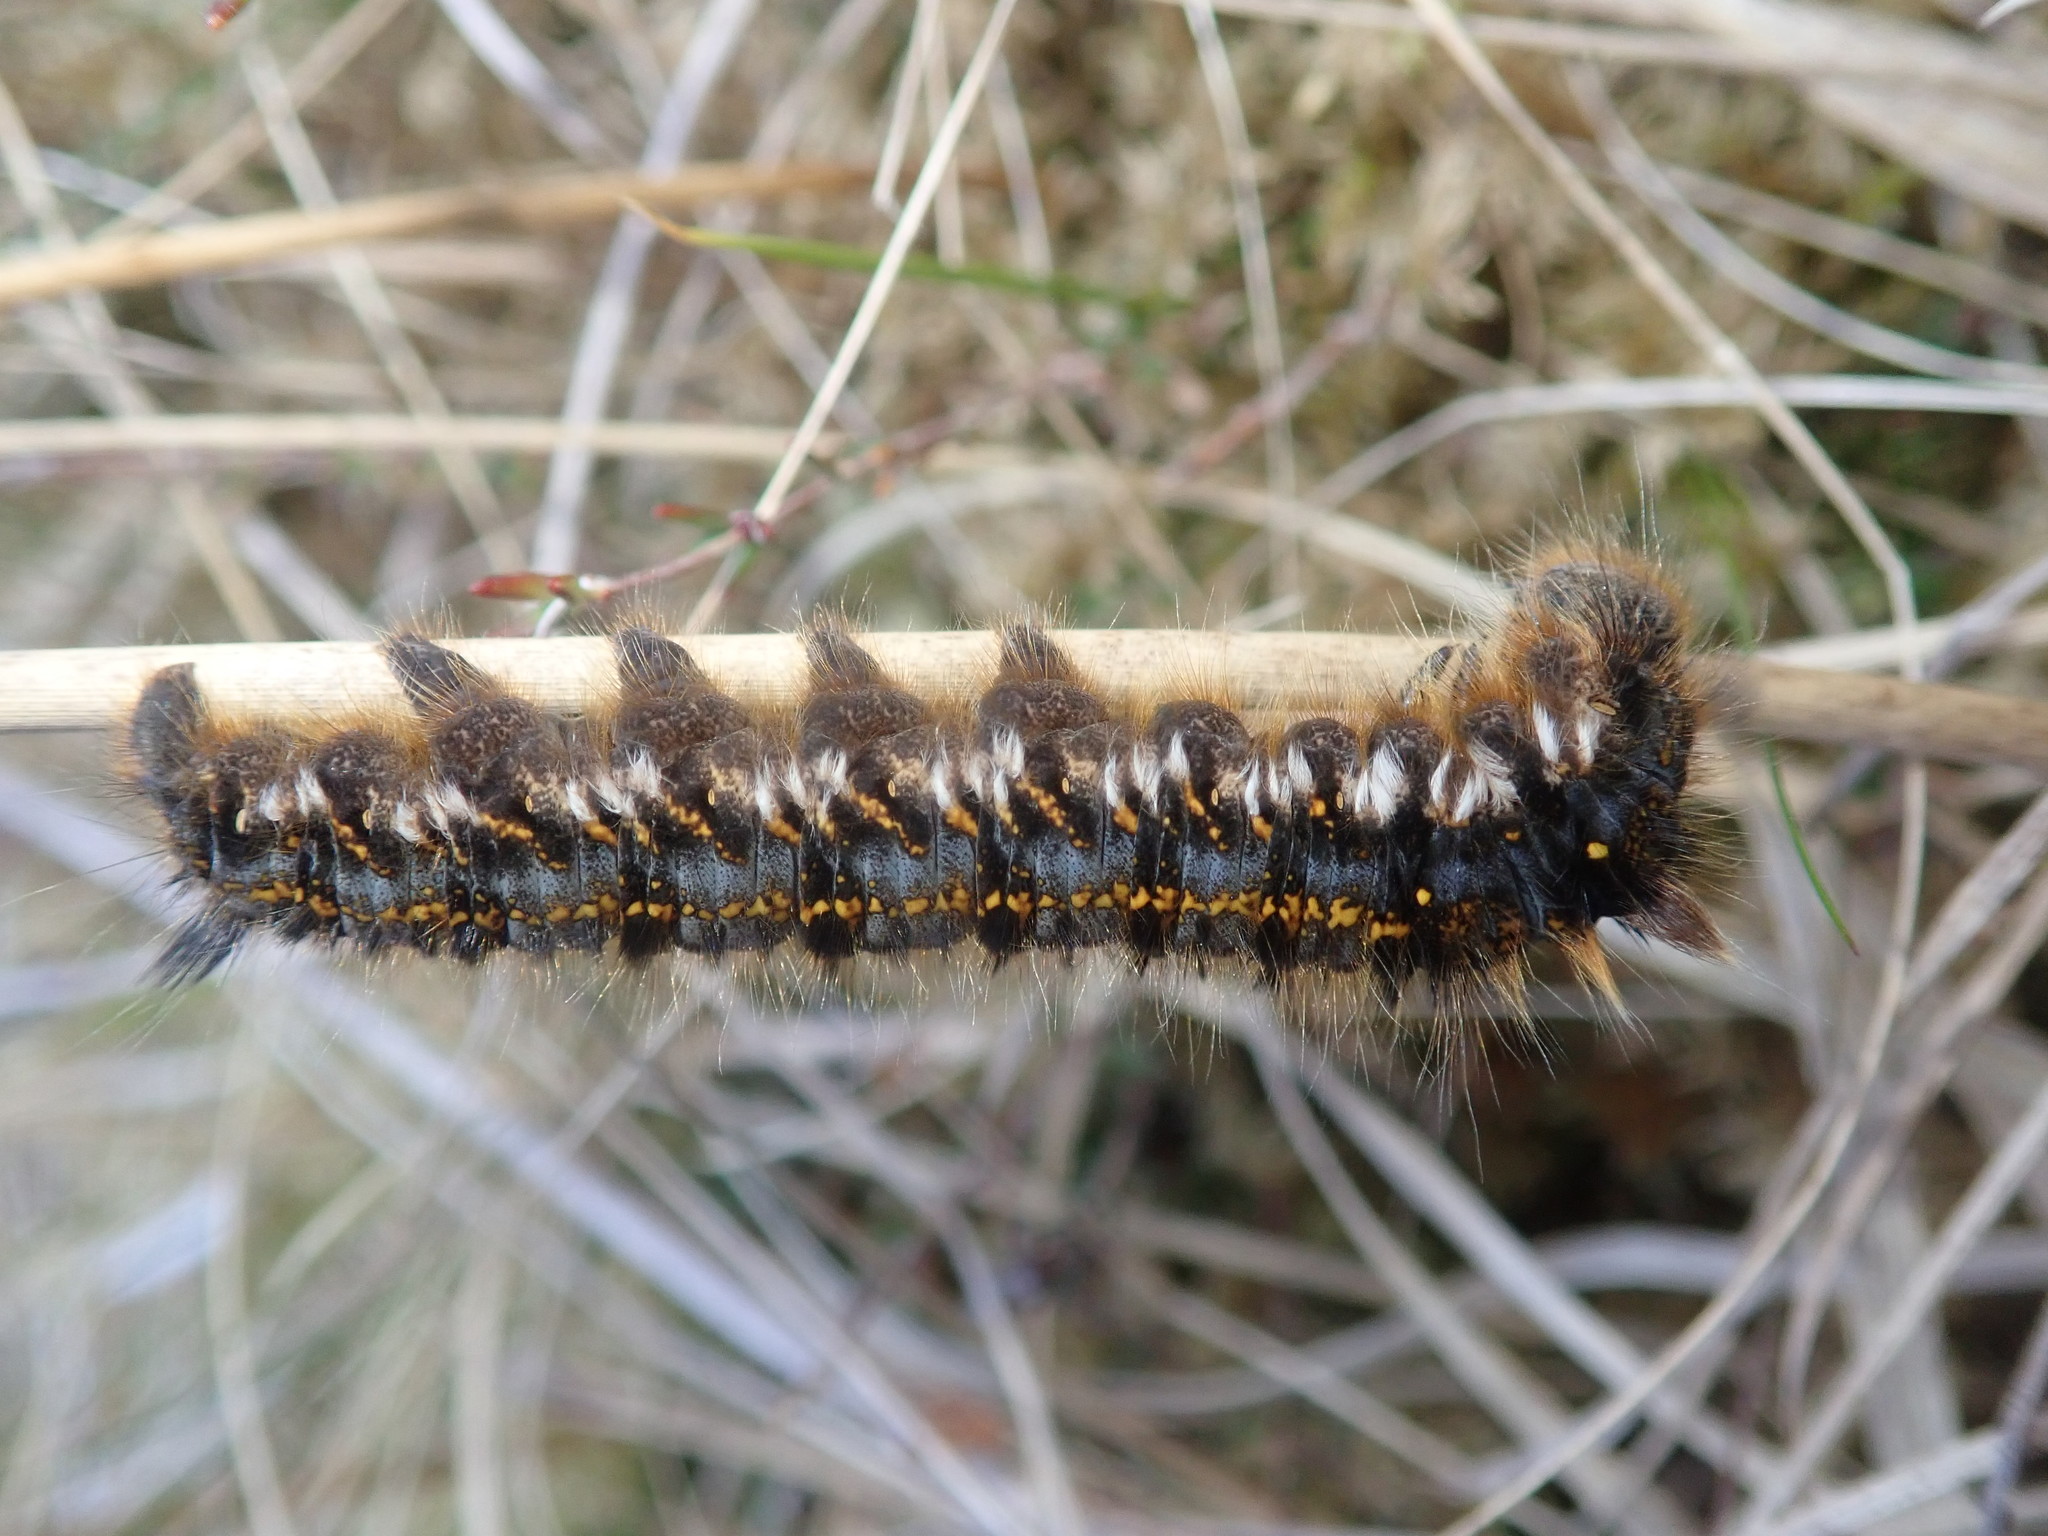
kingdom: Animalia
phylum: Arthropoda
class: Insecta
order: Lepidoptera
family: Lasiocampidae
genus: Euthrix
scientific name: Euthrix potatoria
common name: Drinker
